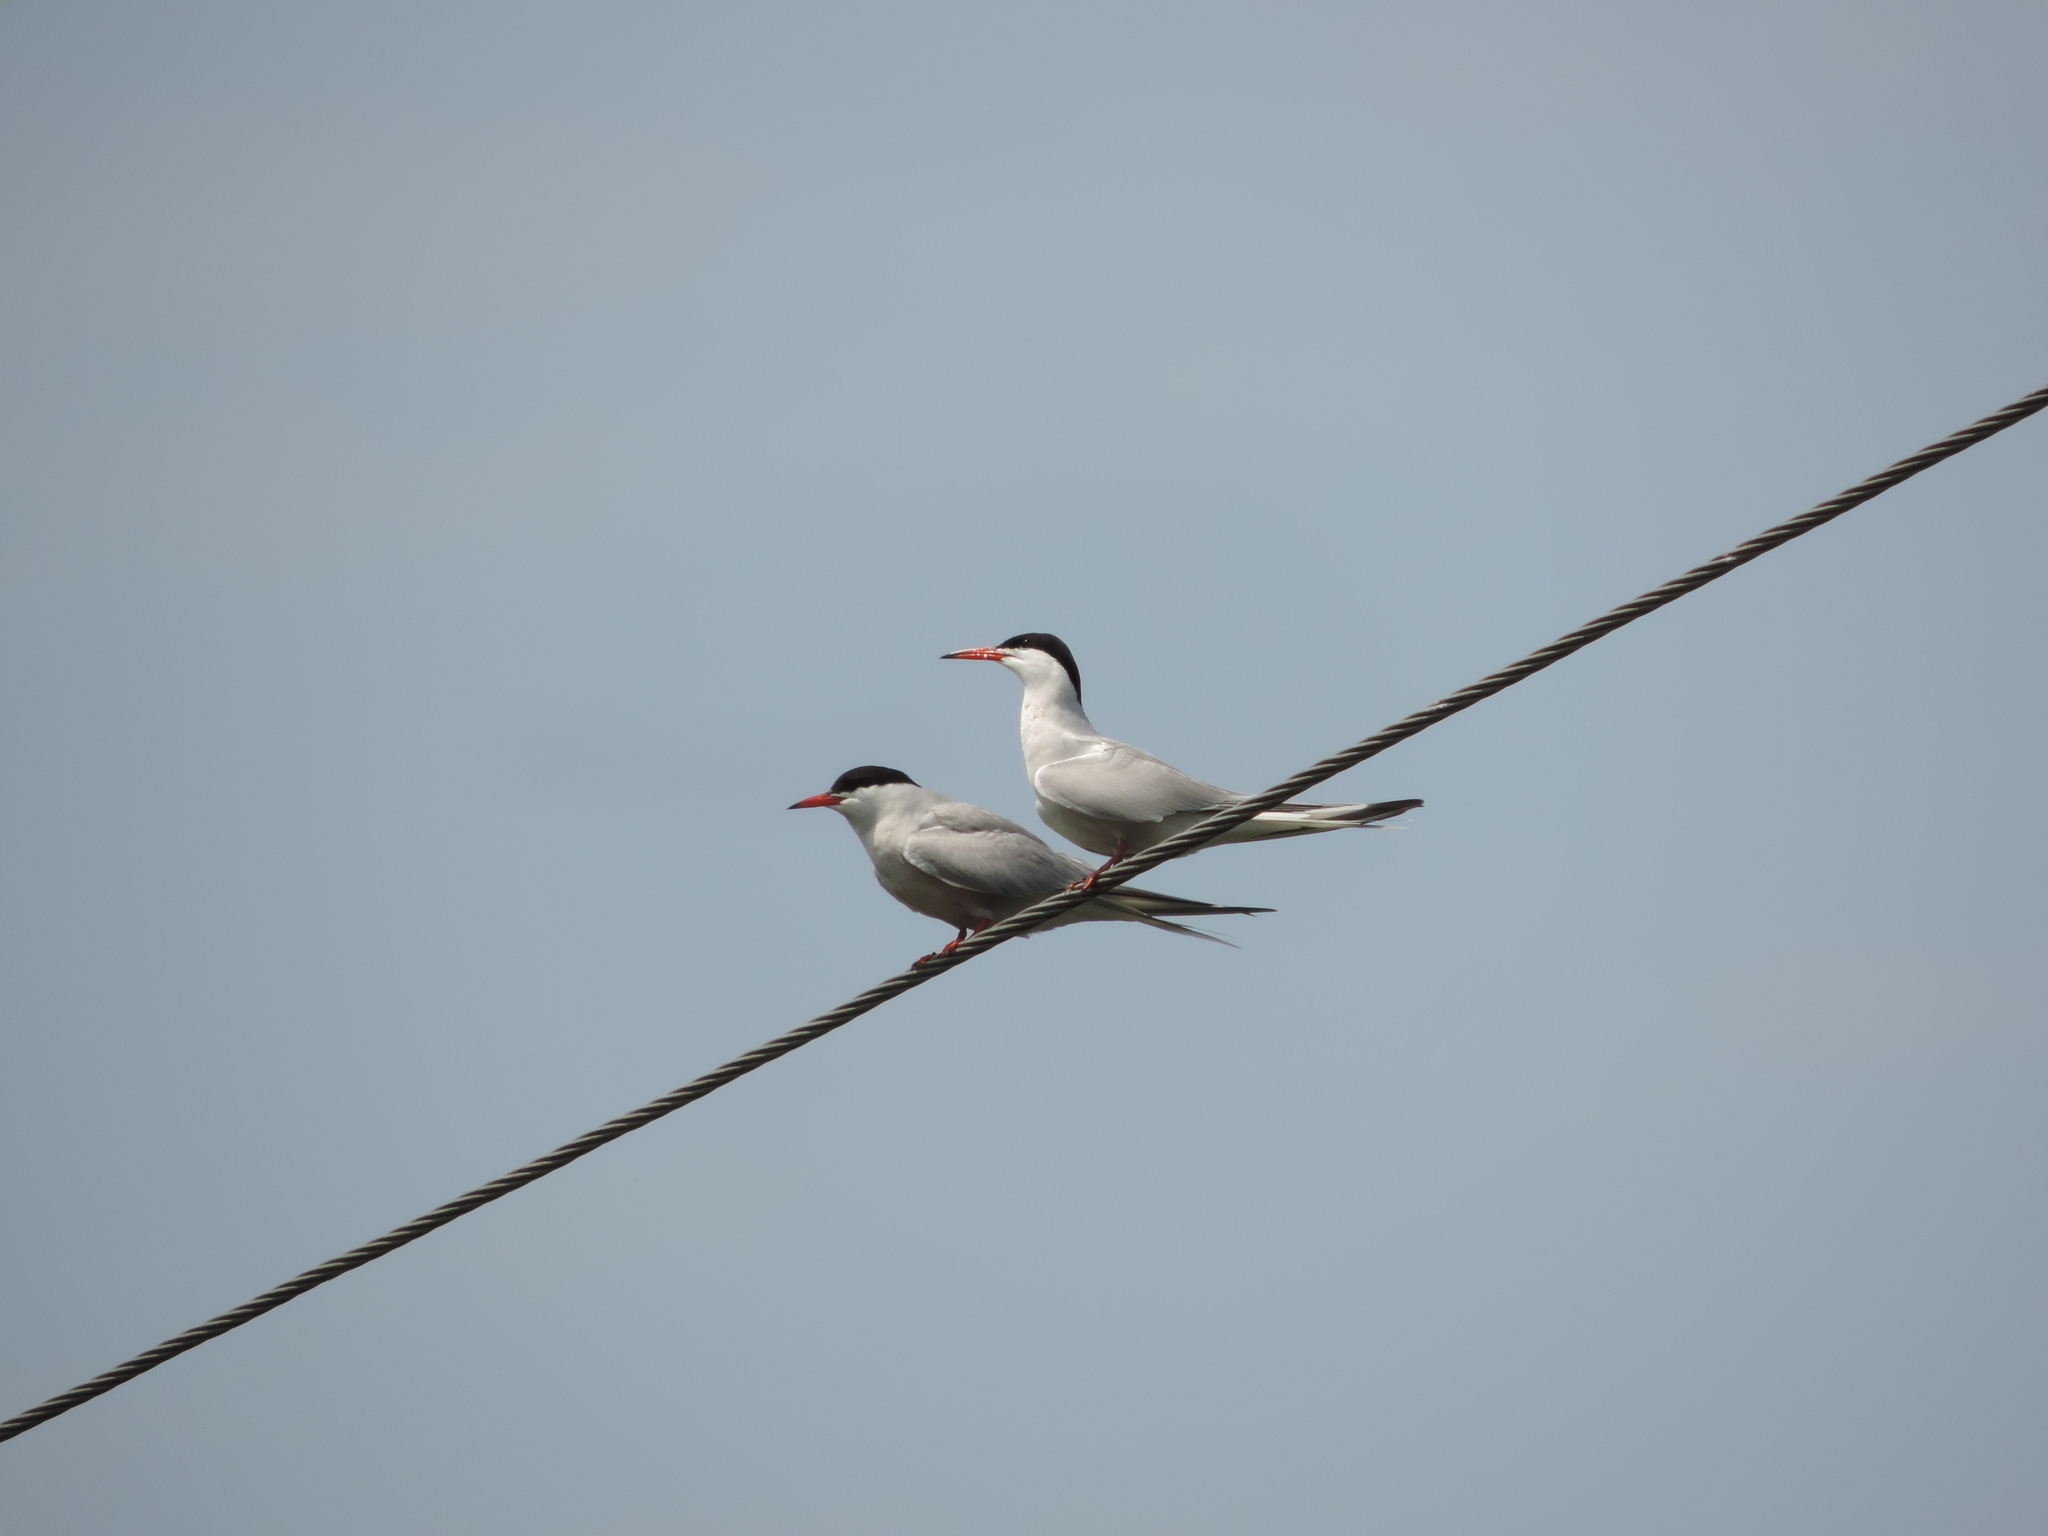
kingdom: Animalia
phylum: Chordata
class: Aves
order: Charadriiformes
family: Laridae
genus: Sterna
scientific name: Sterna hirundo
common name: Common tern
